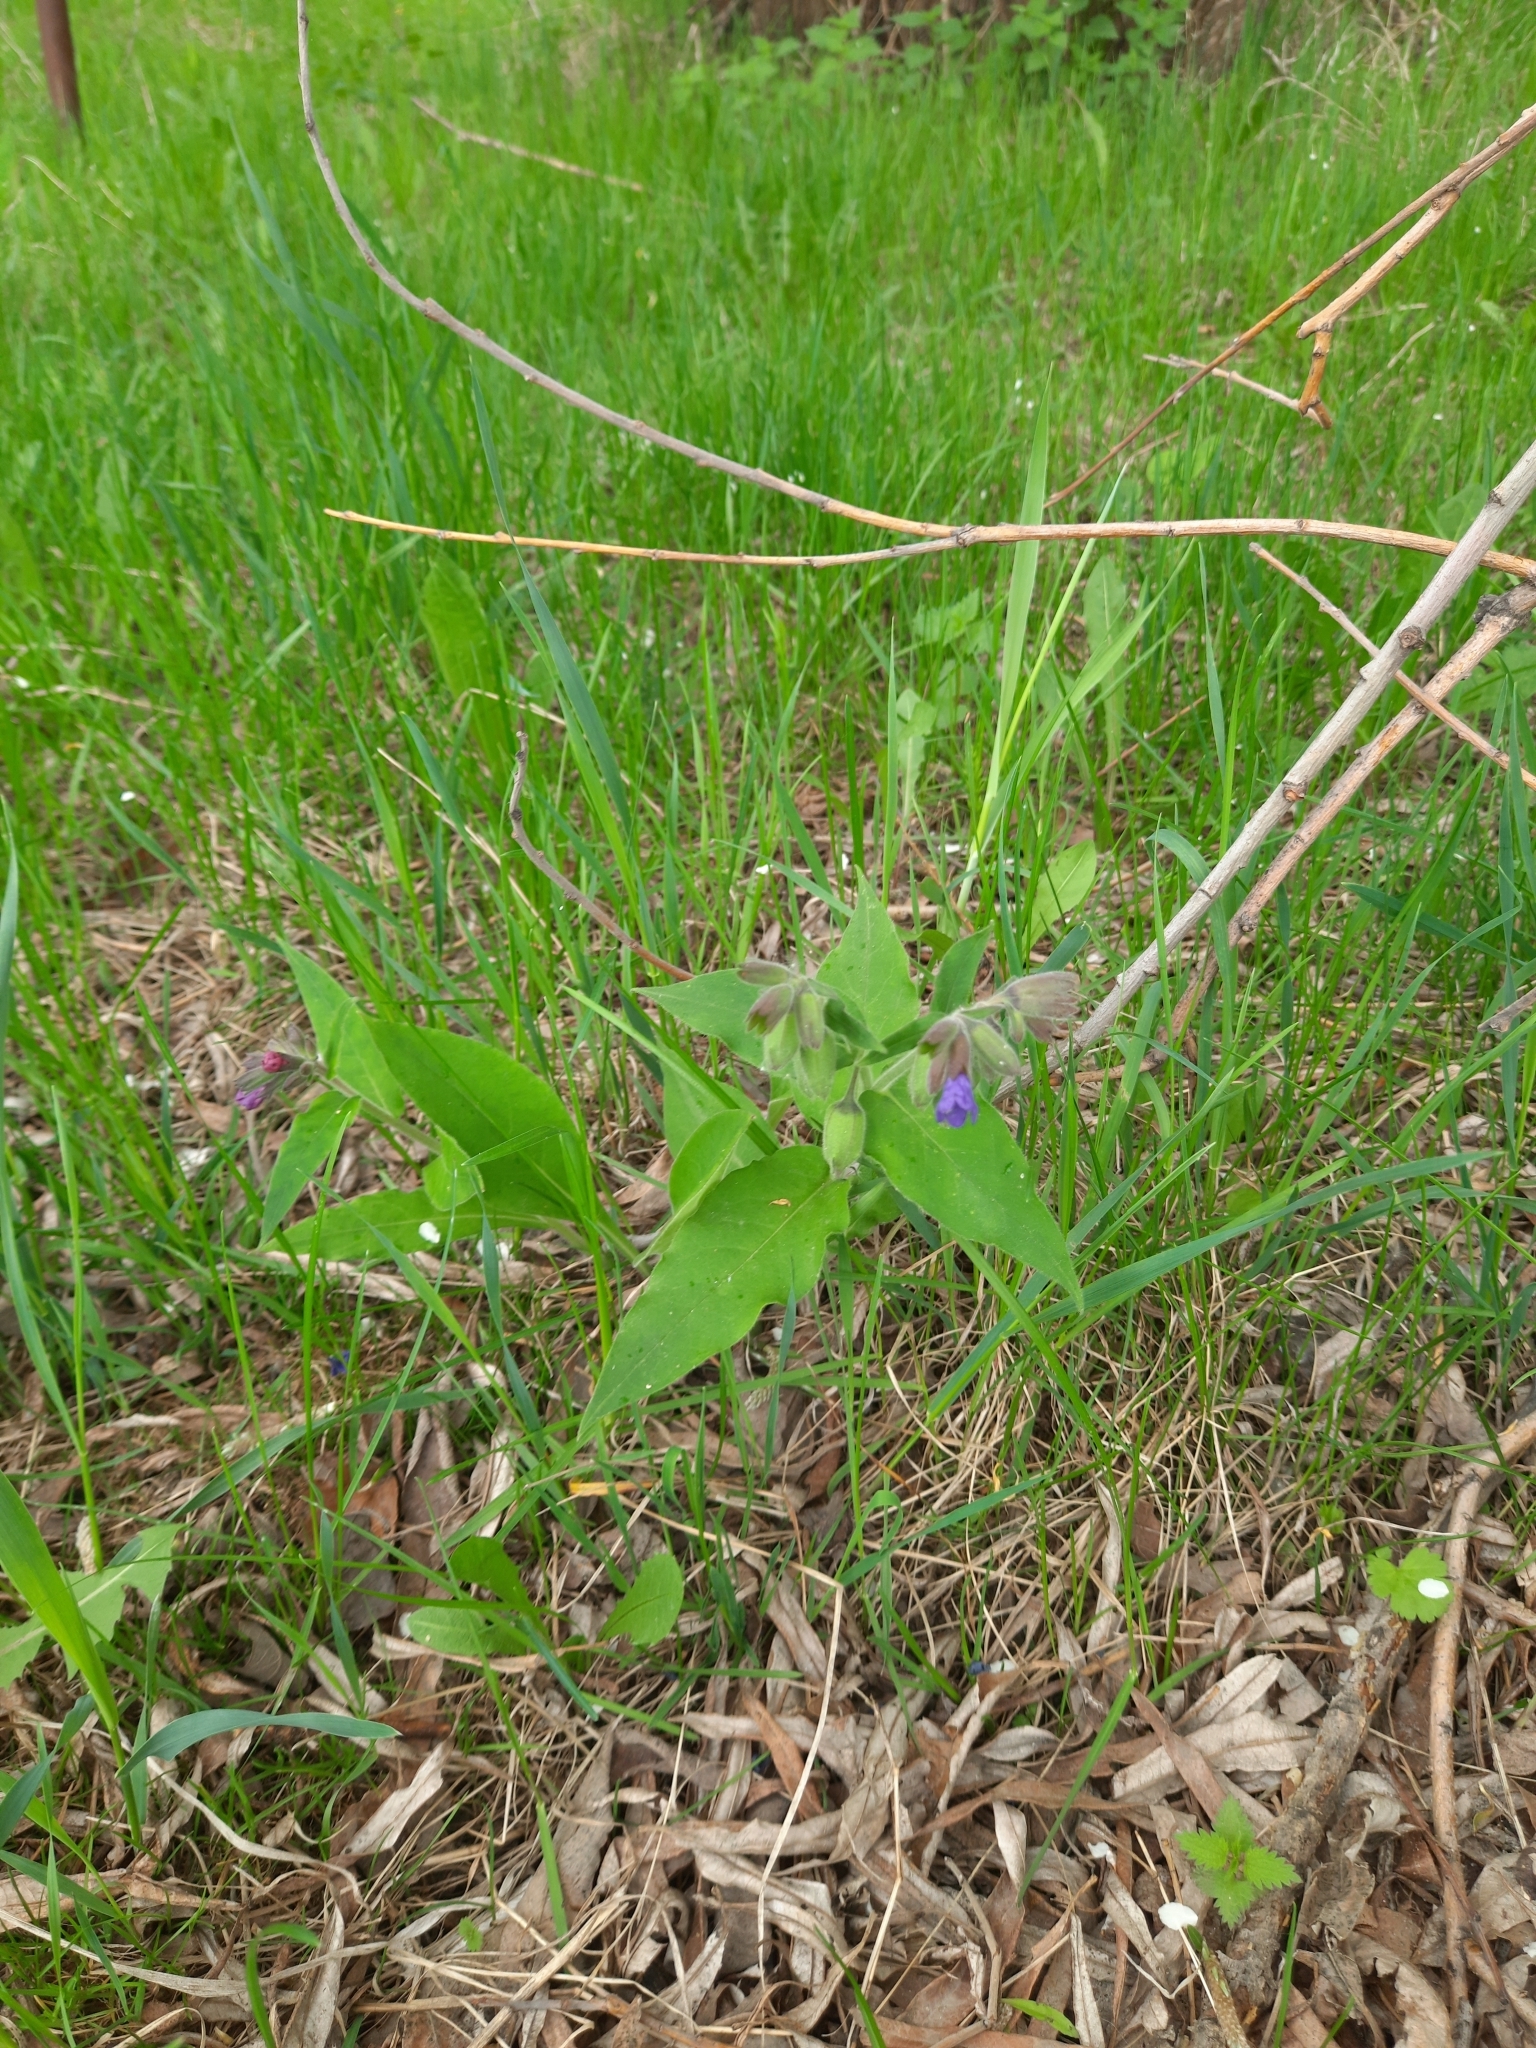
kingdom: Plantae
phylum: Tracheophyta
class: Magnoliopsida
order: Boraginales
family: Boraginaceae
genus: Pulmonaria
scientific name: Pulmonaria mollis
